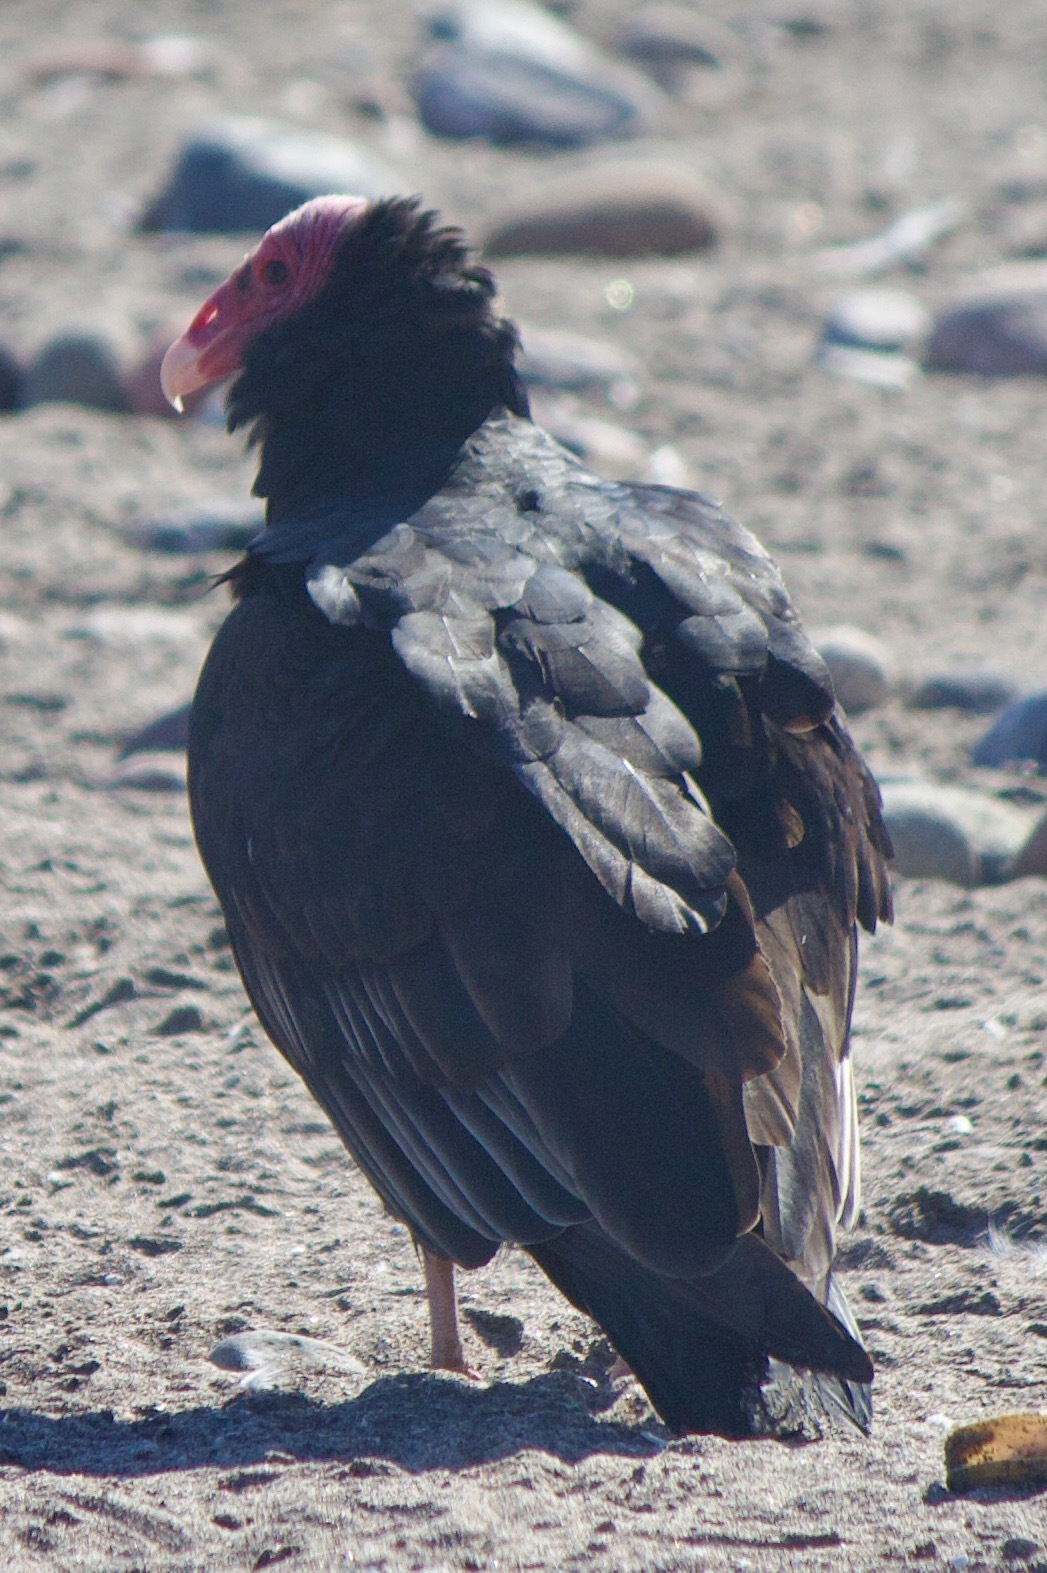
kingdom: Animalia
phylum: Chordata
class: Aves
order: Accipitriformes
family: Cathartidae
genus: Cathartes
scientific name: Cathartes aura
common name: Turkey vulture
